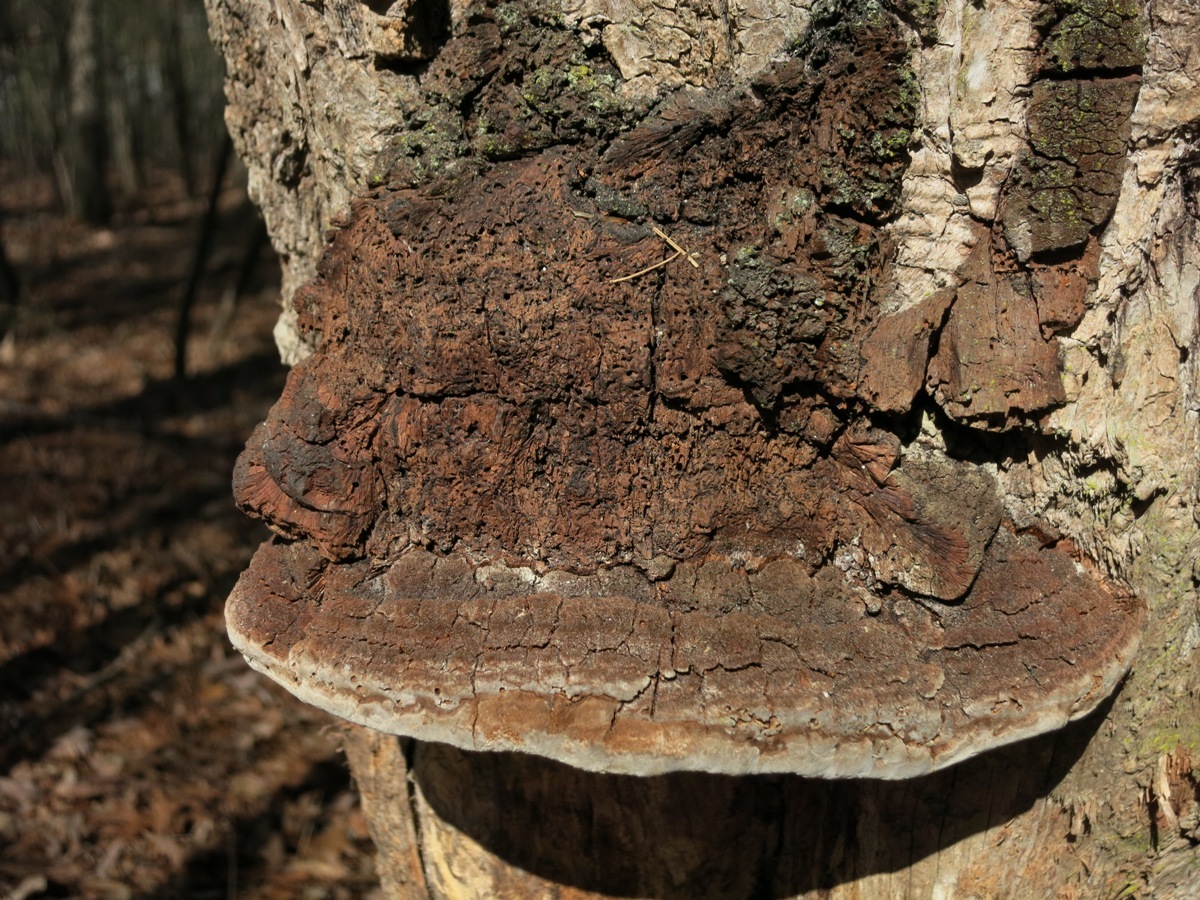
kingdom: Fungi
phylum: Basidiomycota
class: Agaricomycetes
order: Hymenochaetales
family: Hymenochaetaceae
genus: Phellinus
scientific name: Phellinus robiniae
